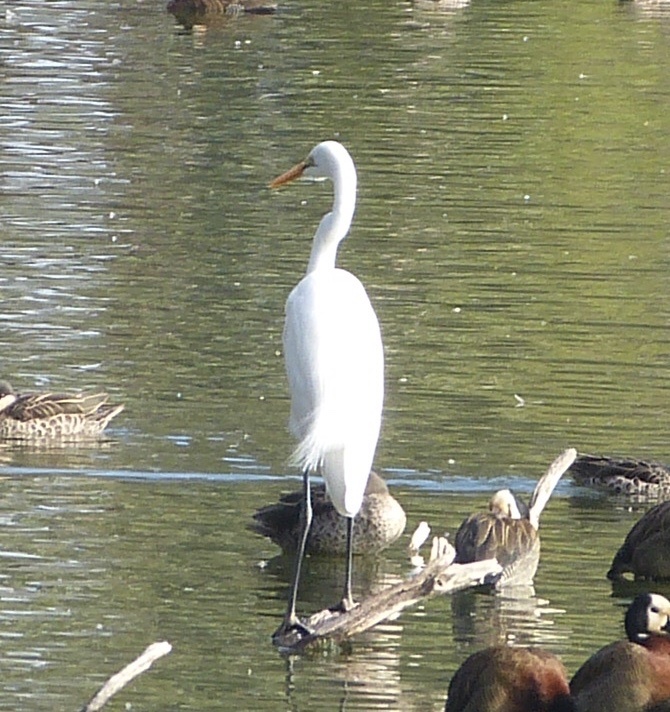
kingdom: Animalia
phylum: Chordata
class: Aves
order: Pelecaniformes
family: Ardeidae
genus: Ardea
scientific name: Ardea alba
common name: Great egret
